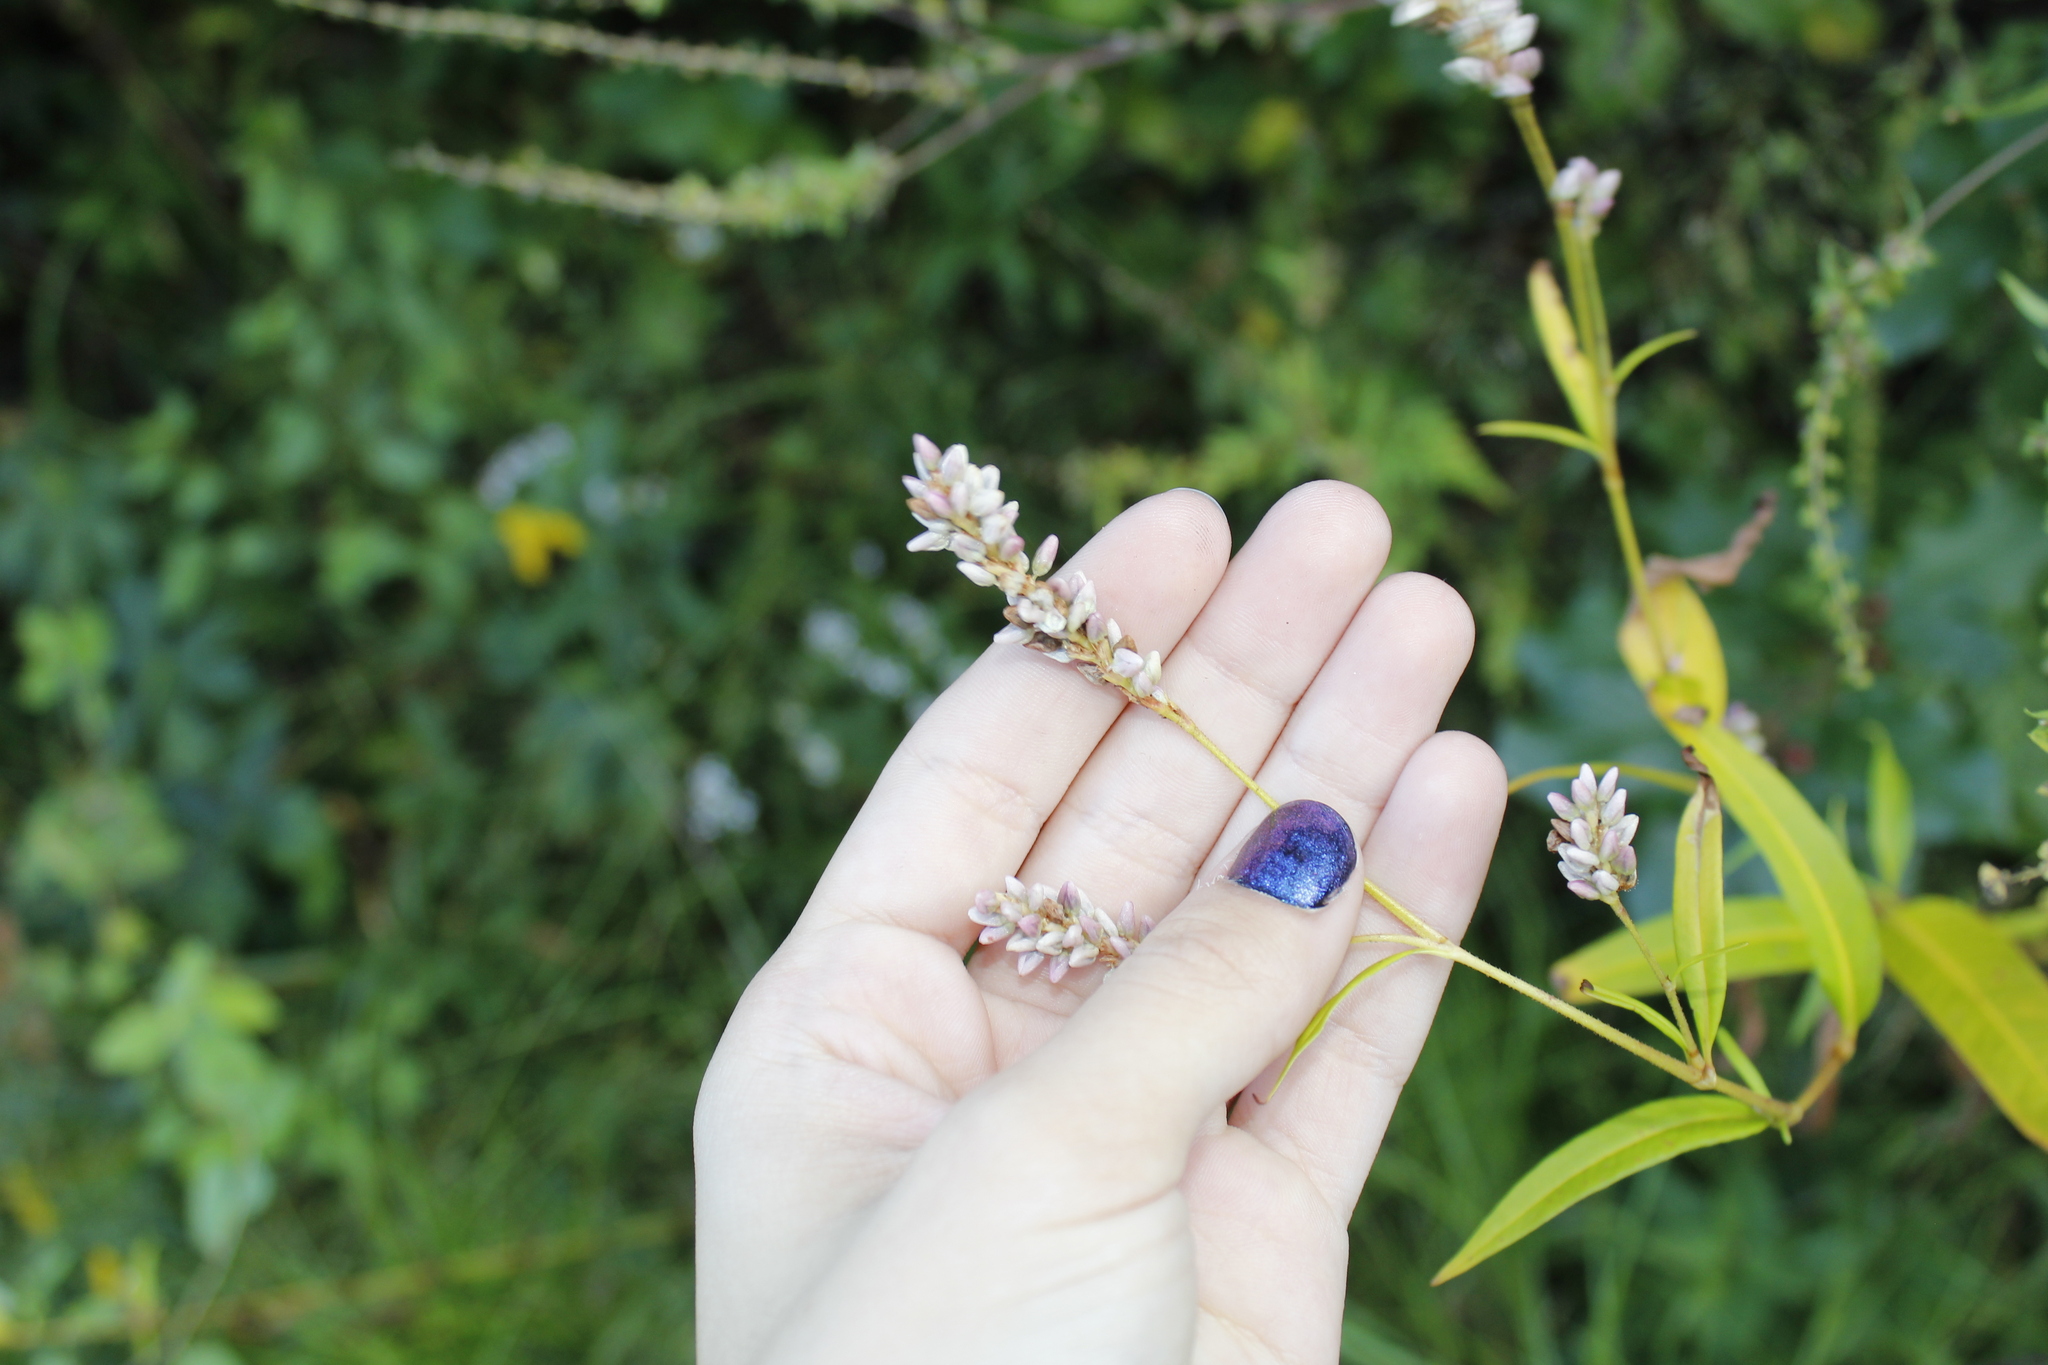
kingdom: Plantae
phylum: Tracheophyta
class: Magnoliopsida
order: Caryophyllales
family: Polygonaceae
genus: Persicaria
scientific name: Persicaria pensylvanica
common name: Pinkweed
